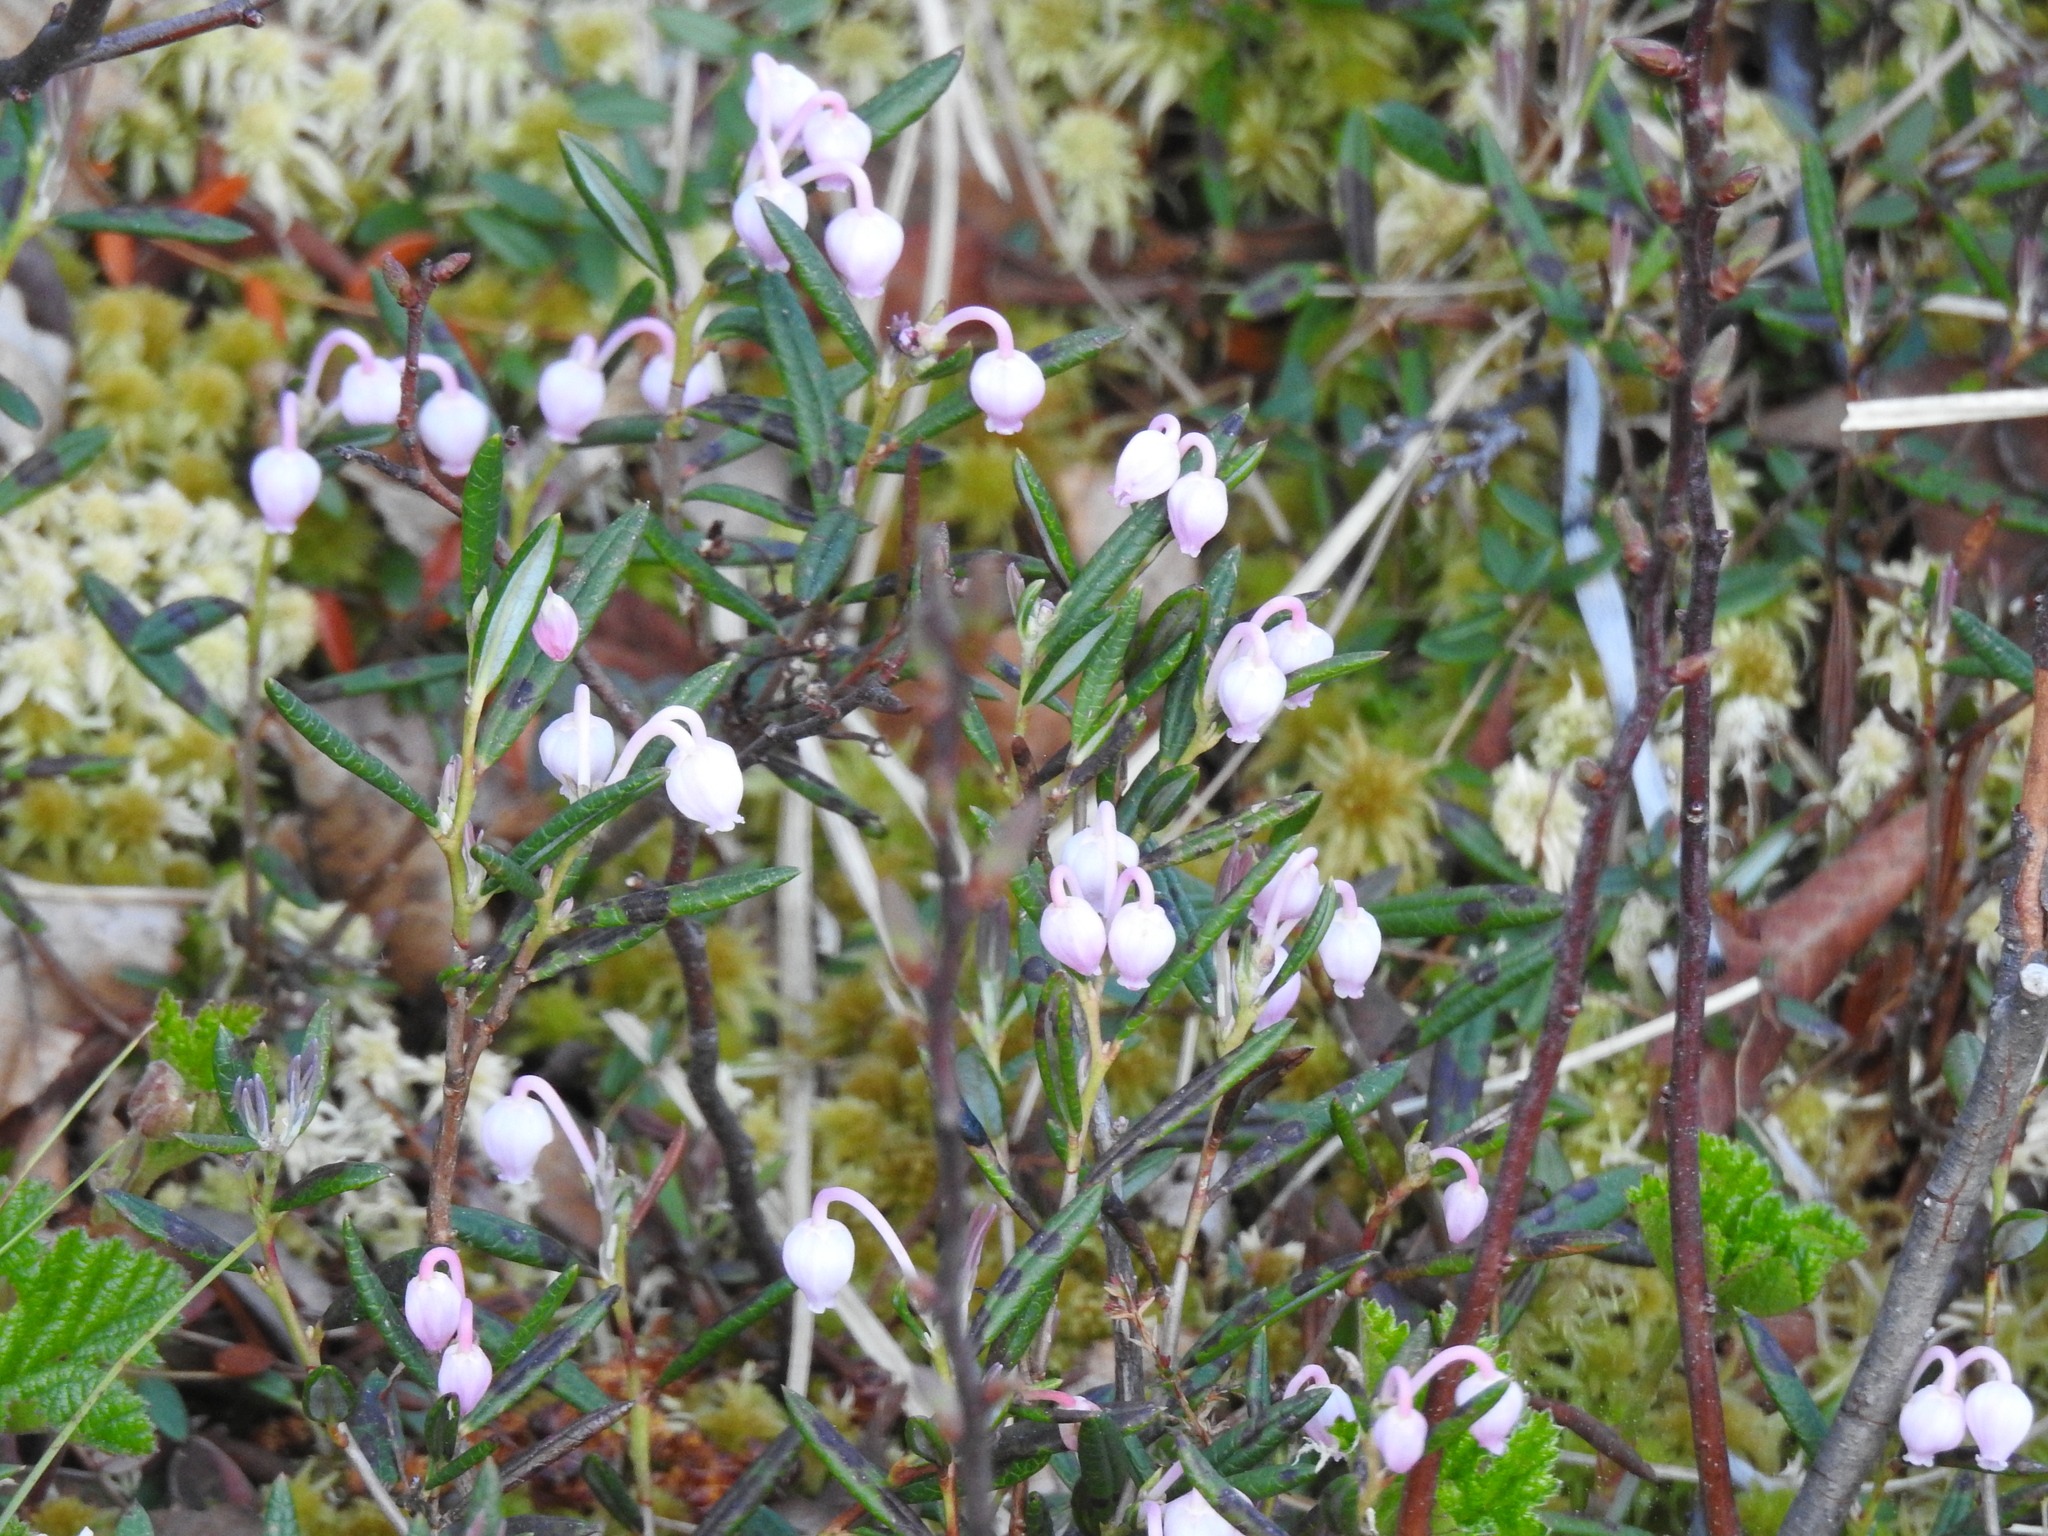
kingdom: Plantae
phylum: Tracheophyta
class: Magnoliopsida
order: Ericales
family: Ericaceae
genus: Andromeda
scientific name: Andromeda polifolia
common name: Bog-rosemary
